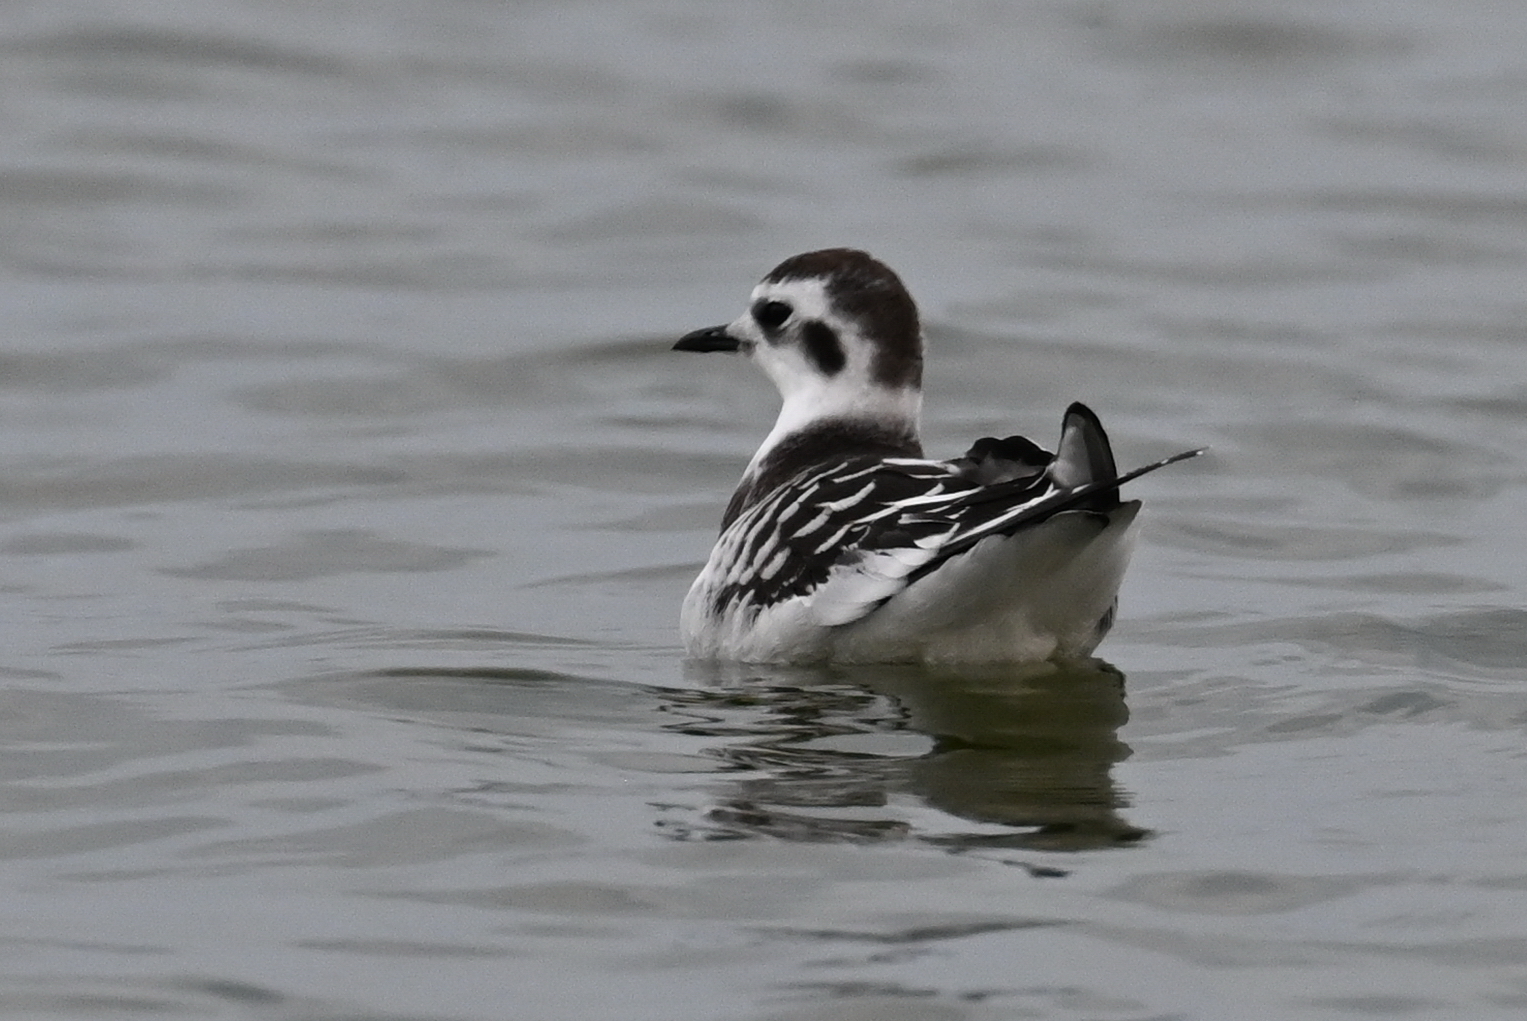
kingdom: Animalia
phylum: Chordata
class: Aves
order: Charadriiformes
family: Laridae
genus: Hydrocoloeus
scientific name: Hydrocoloeus minutus
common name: Little gull
